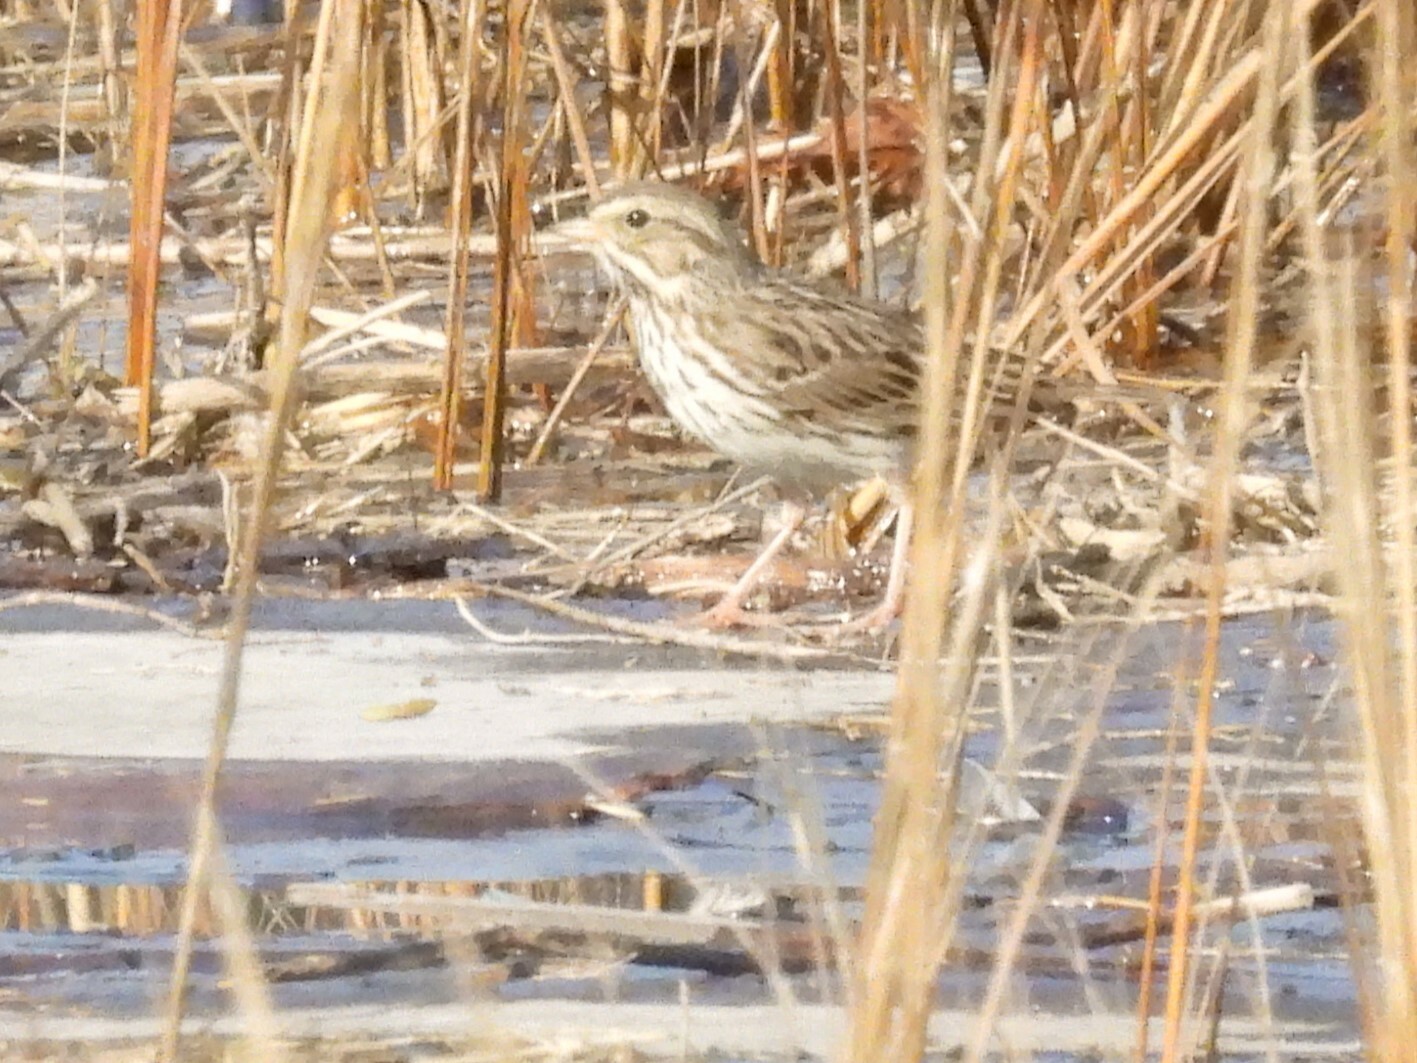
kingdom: Animalia
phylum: Chordata
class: Aves
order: Passeriformes
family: Passerellidae
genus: Passerculus
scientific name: Passerculus sandwichensis
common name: Savannah sparrow
